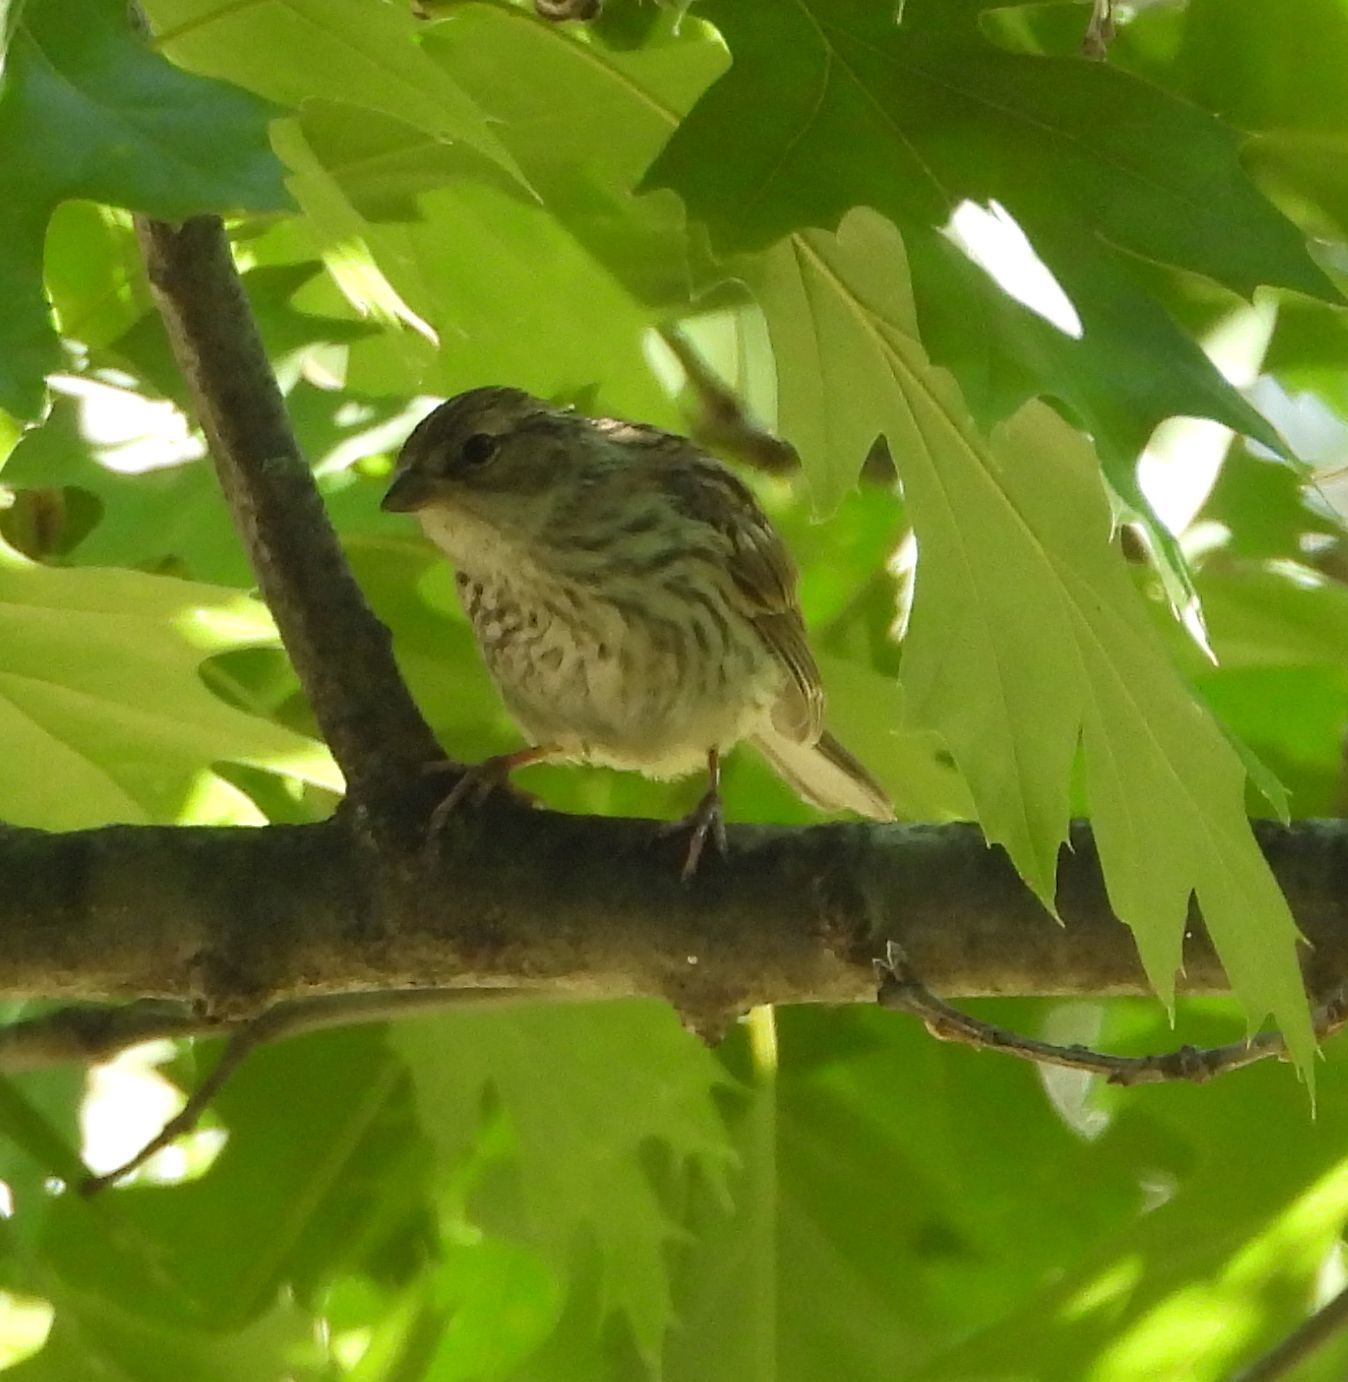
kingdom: Animalia
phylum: Chordata
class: Aves
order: Passeriformes
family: Passerellidae
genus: Spizella
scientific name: Spizella passerina
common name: Chipping sparrow
